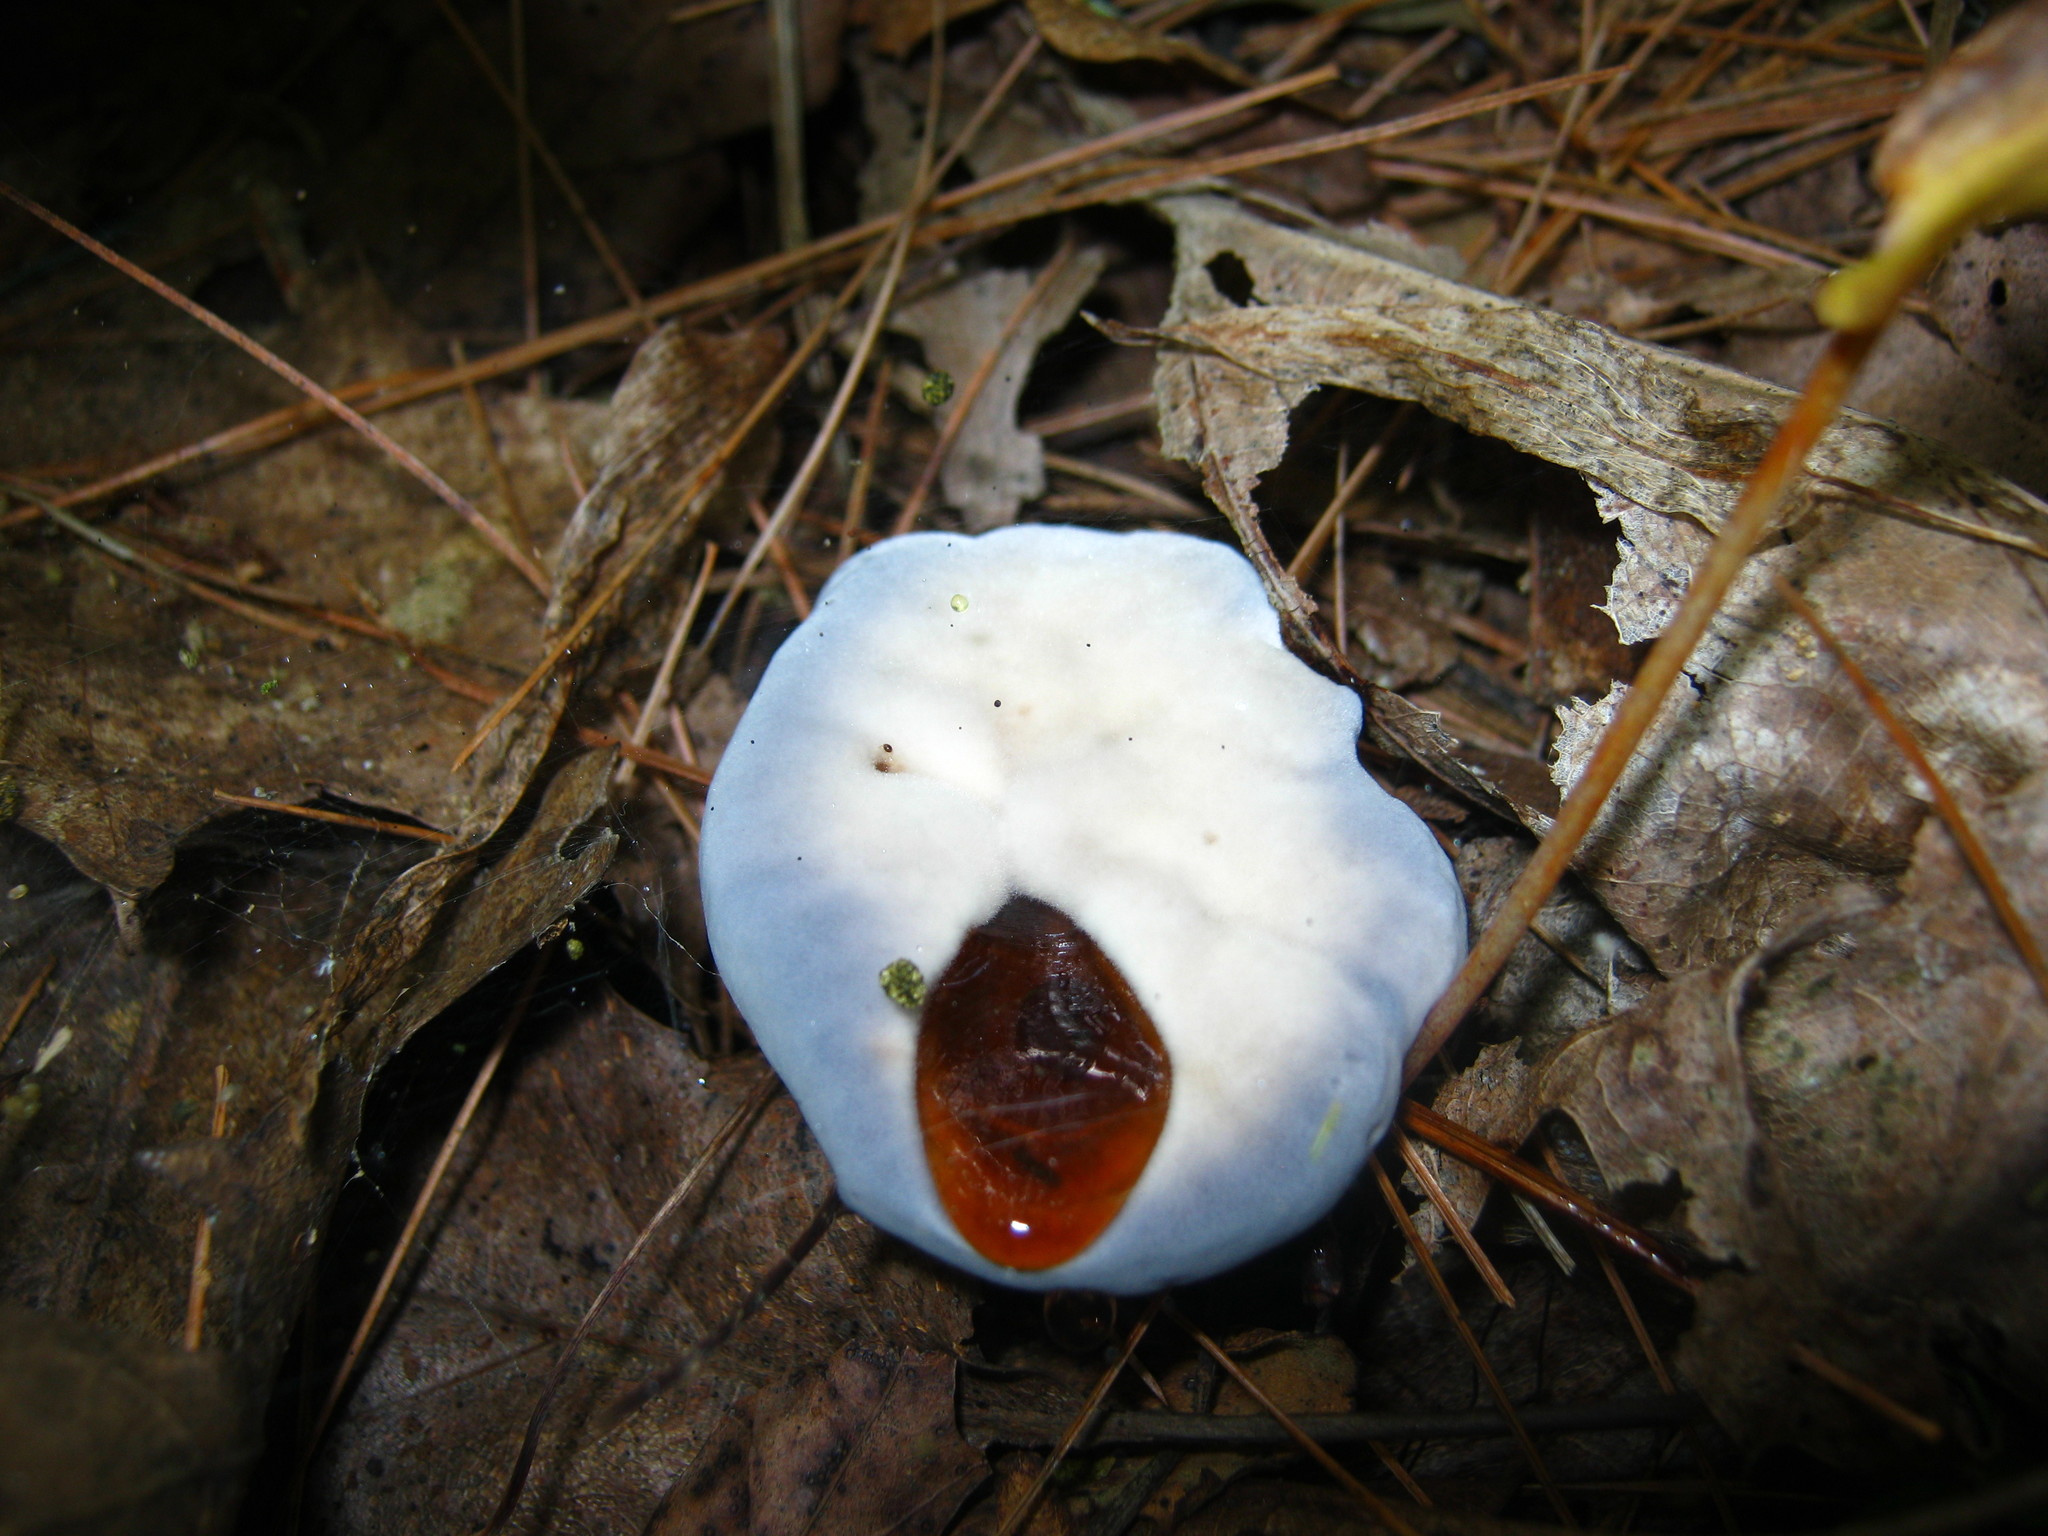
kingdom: Fungi
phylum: Basidiomycota
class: Agaricomycetes
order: Thelephorales
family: Bankeraceae
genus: Hydnellum
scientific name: Hydnellum caeruleum
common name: Blue corky spine fungus
